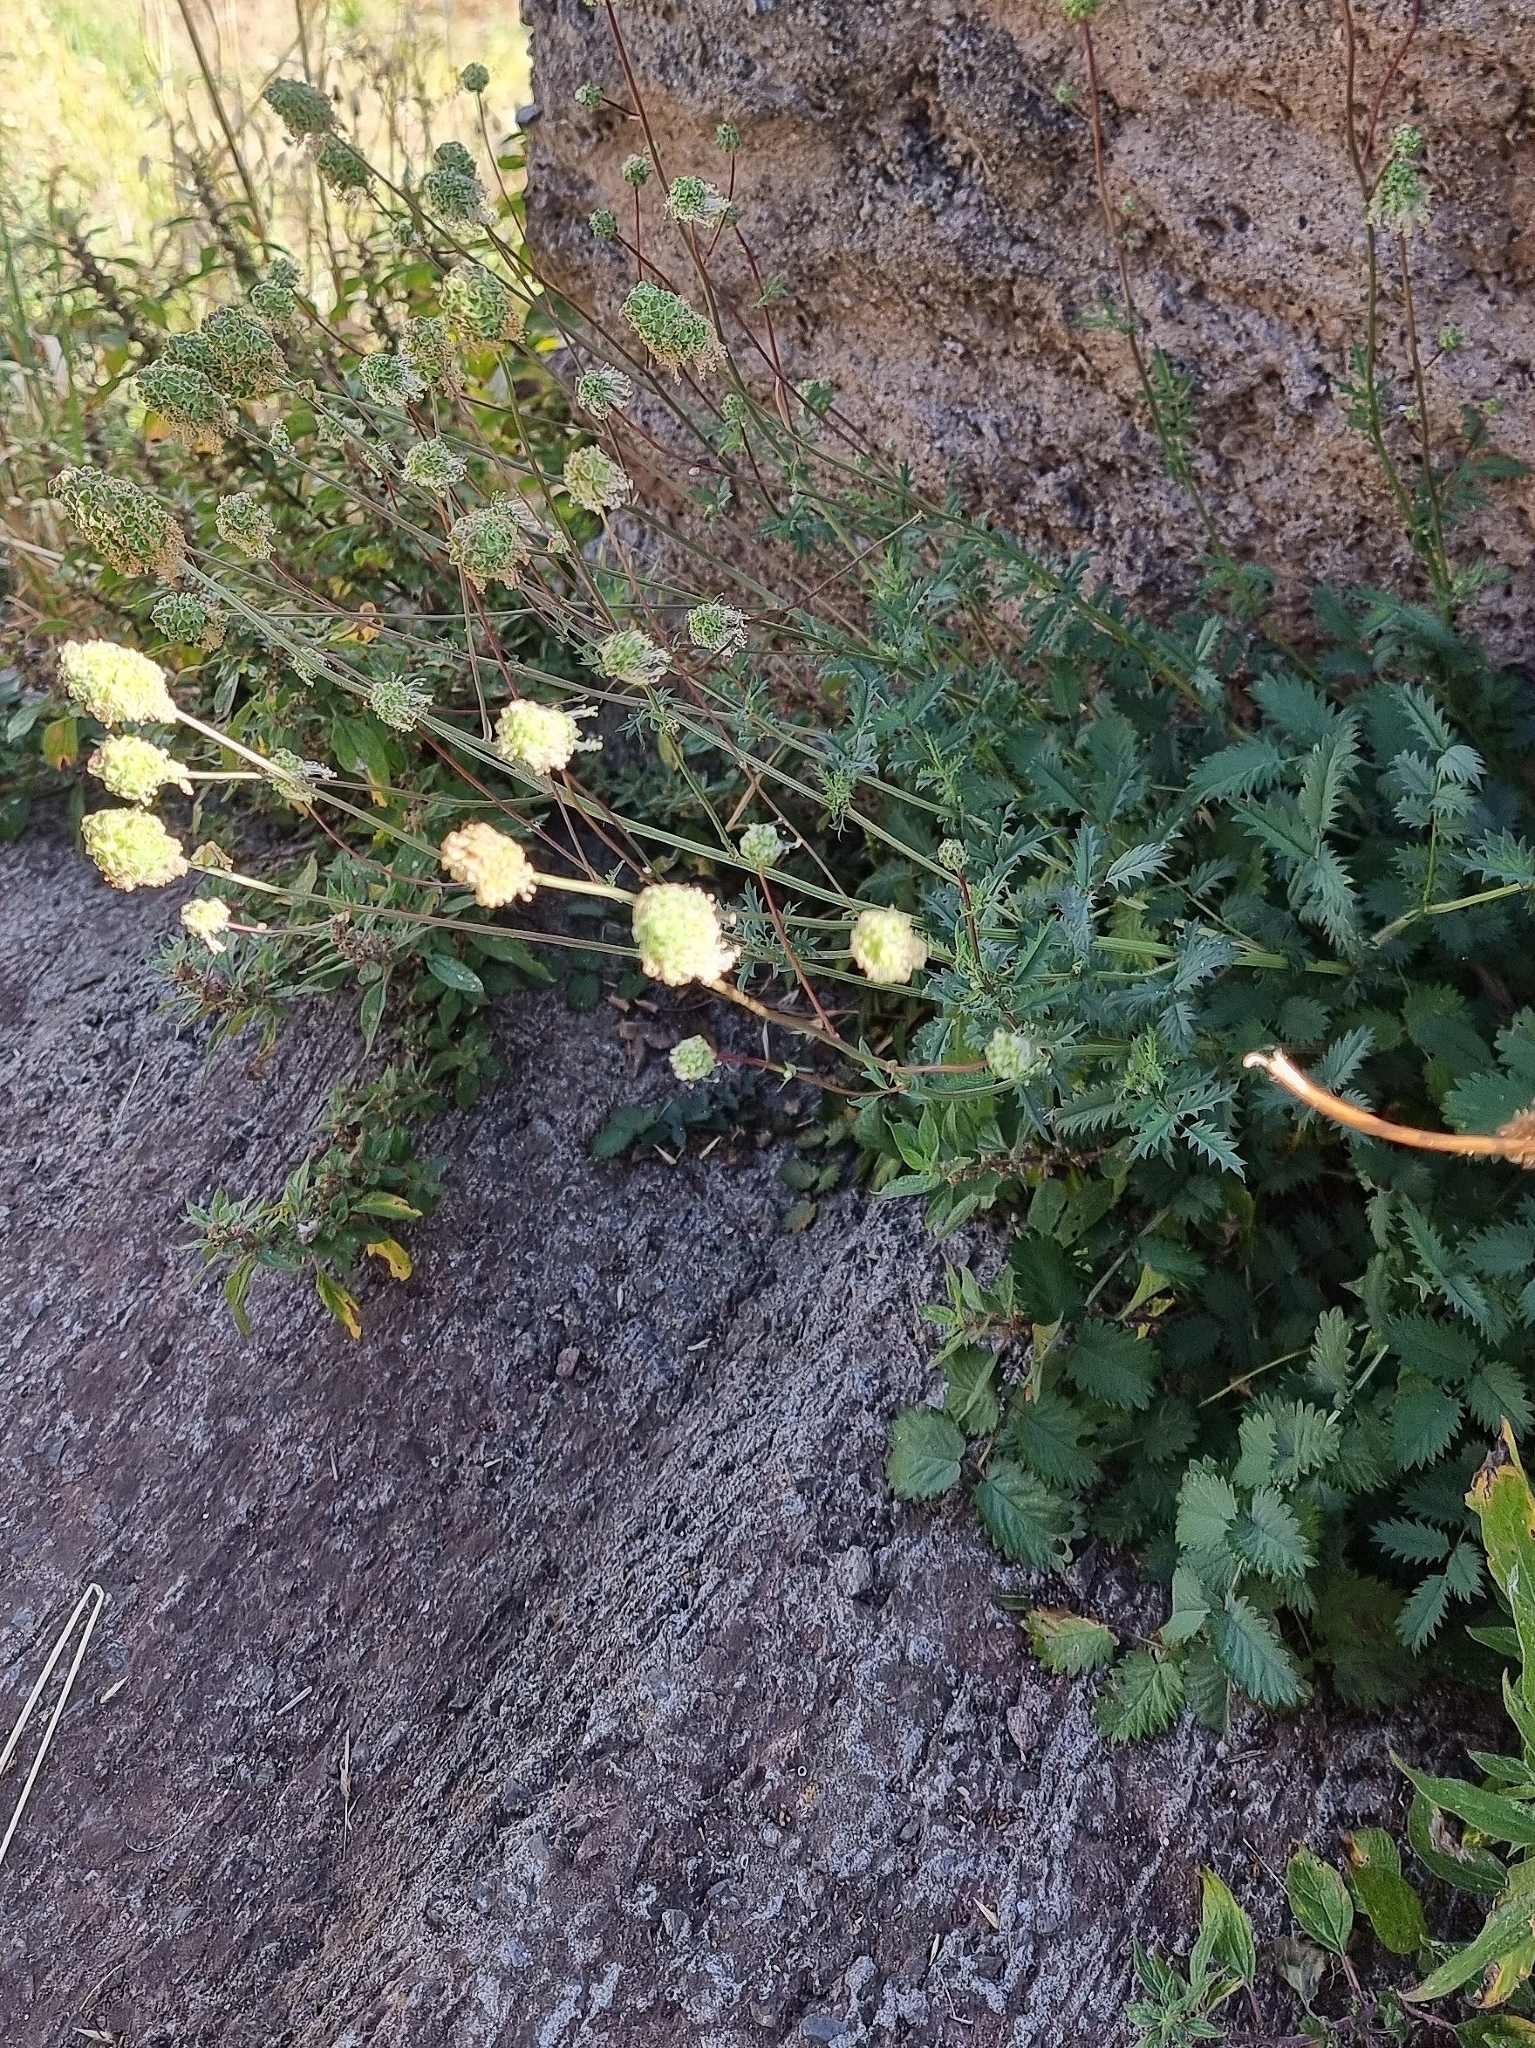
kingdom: Plantae
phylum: Tracheophyta
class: Magnoliopsida
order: Rosales
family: Rosaceae
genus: Poterium
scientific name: Poterium
